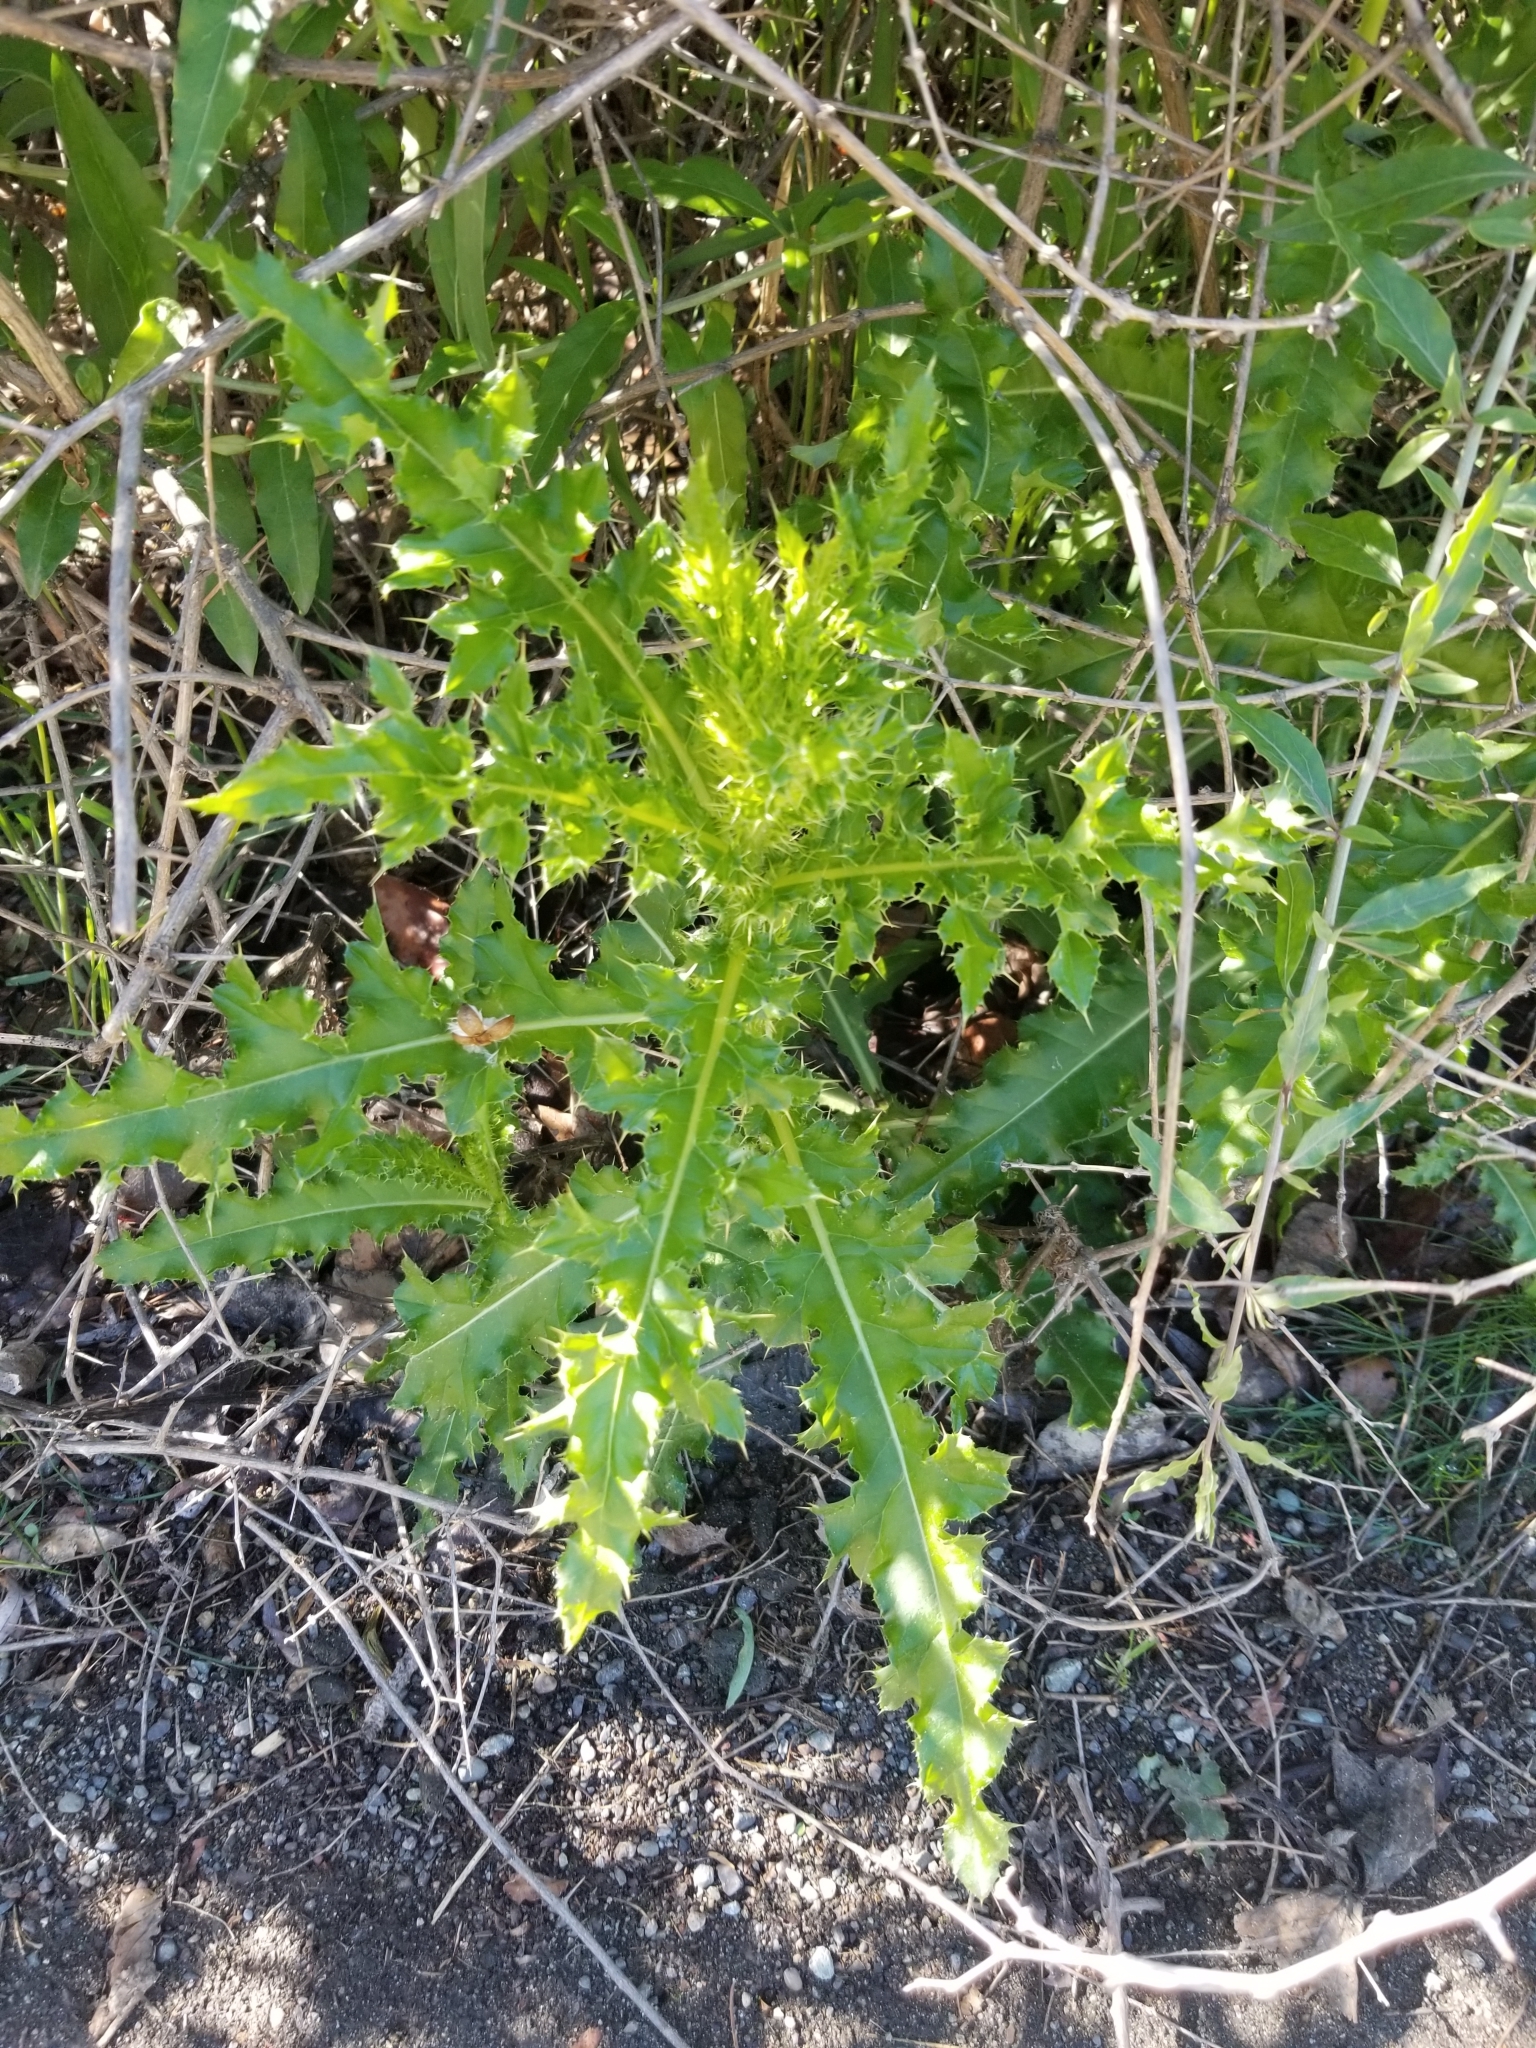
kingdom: Plantae
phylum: Tracheophyta
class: Magnoliopsida
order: Asterales
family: Asteraceae
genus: Cirsium
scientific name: Cirsium arvense
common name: Creeping thistle
